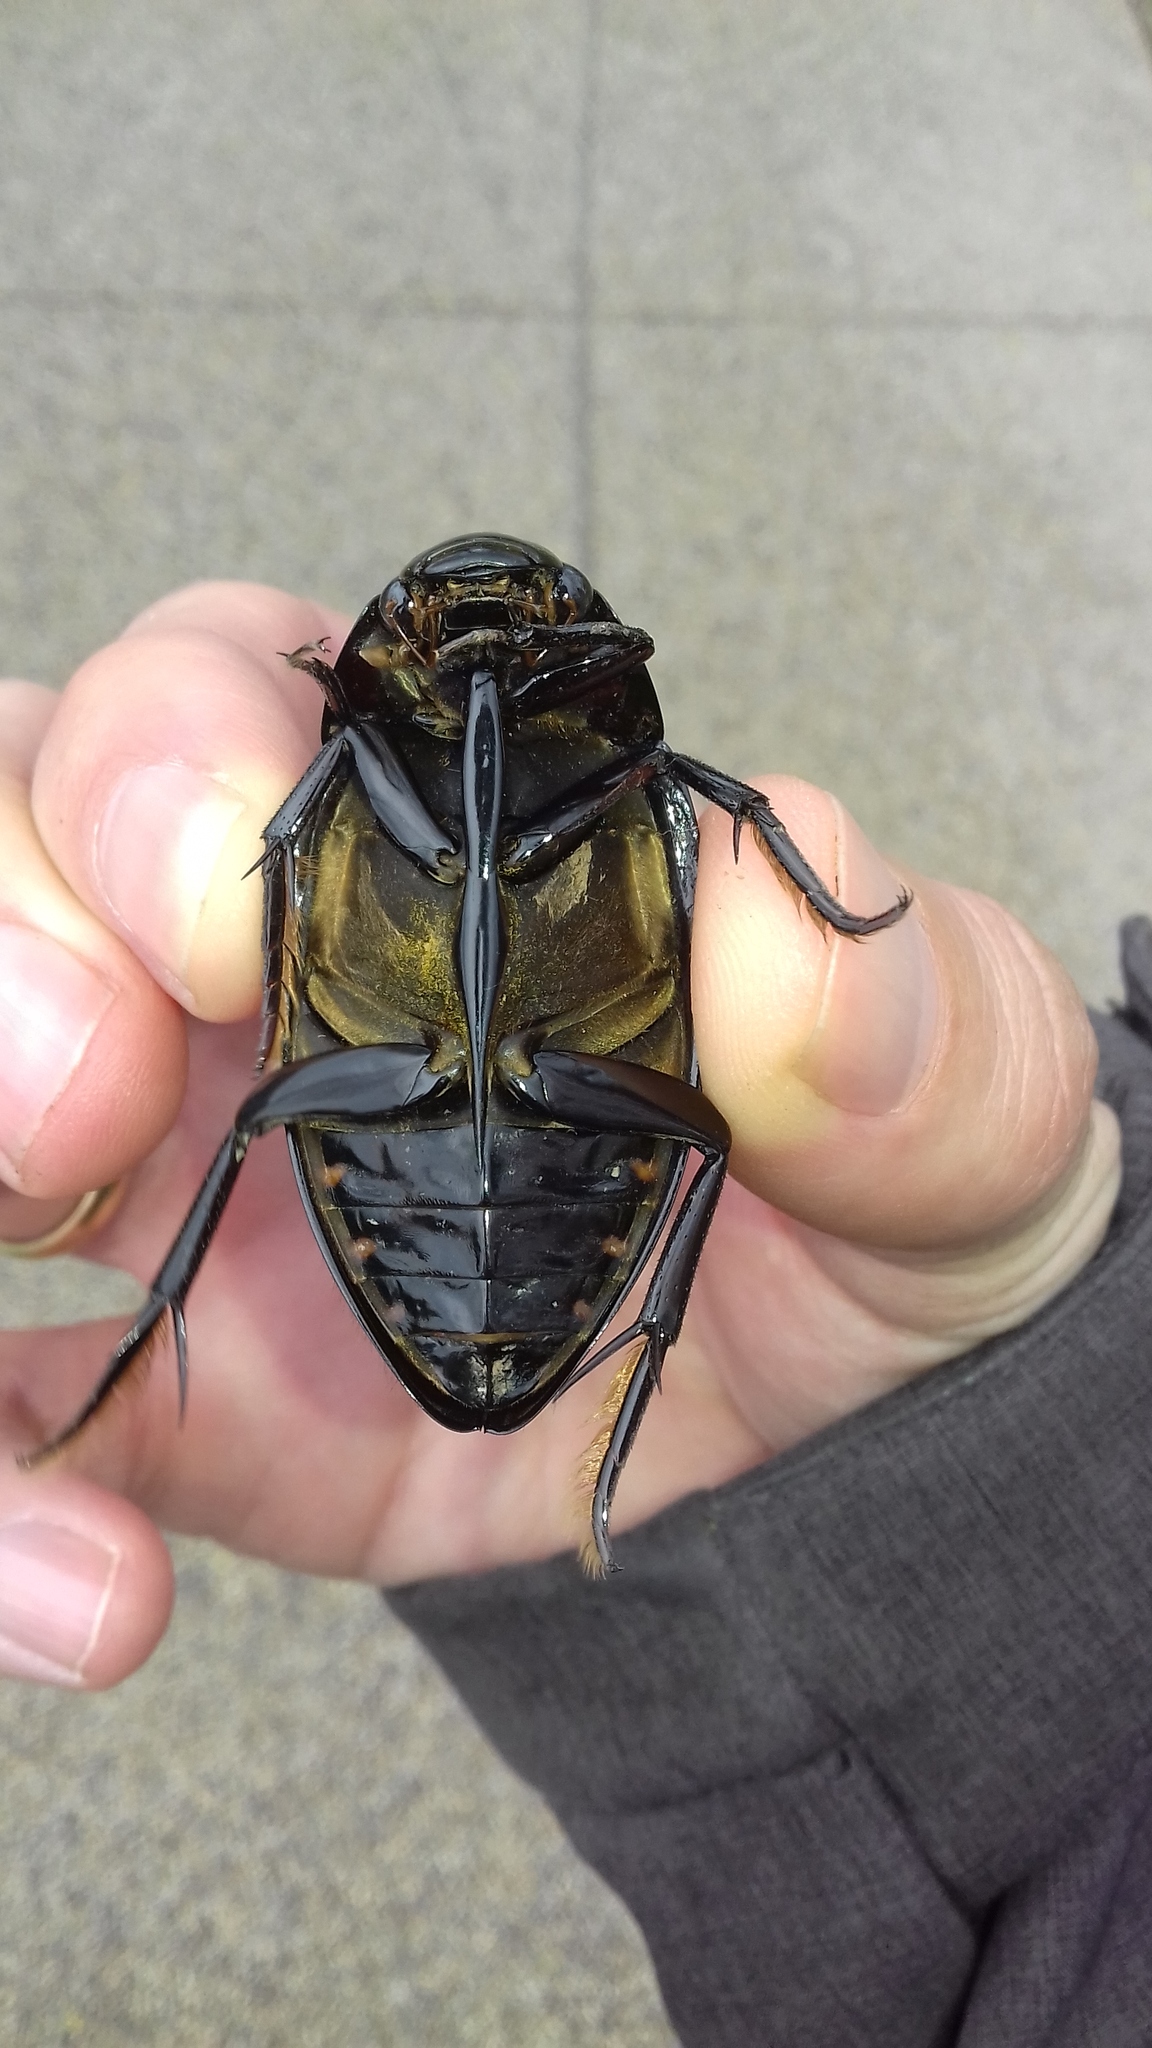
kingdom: Animalia
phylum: Arthropoda
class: Insecta
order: Coleoptera
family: Hydrophilidae
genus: Hydrophilus
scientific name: Hydrophilus piceus
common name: Great silver water beetle
